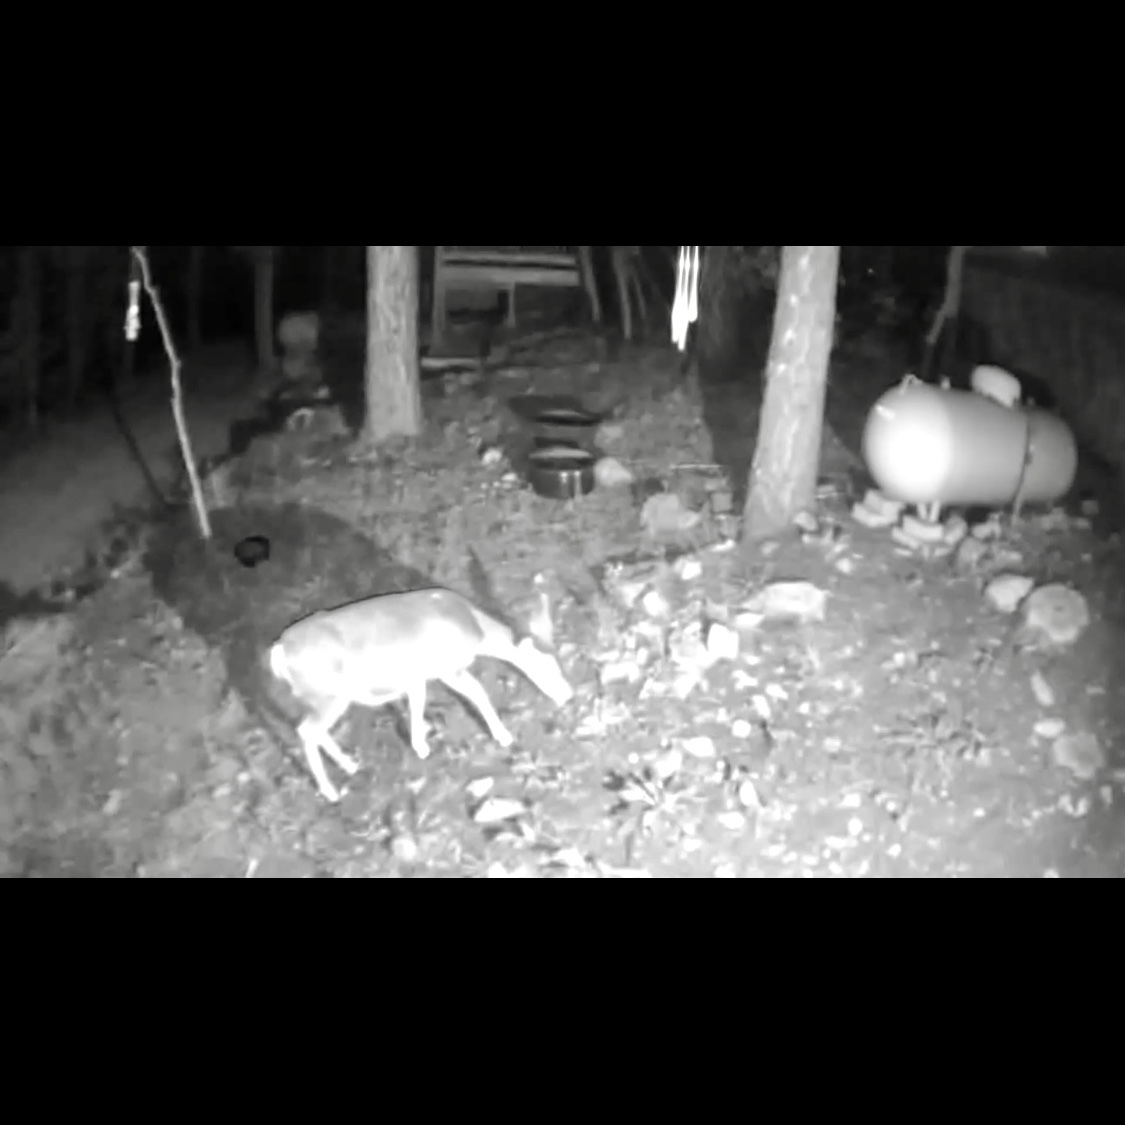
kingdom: Animalia
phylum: Chordata
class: Mammalia
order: Artiodactyla
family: Cervidae
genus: Odocoileus
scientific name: Odocoileus hemionus
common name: Mule deer
